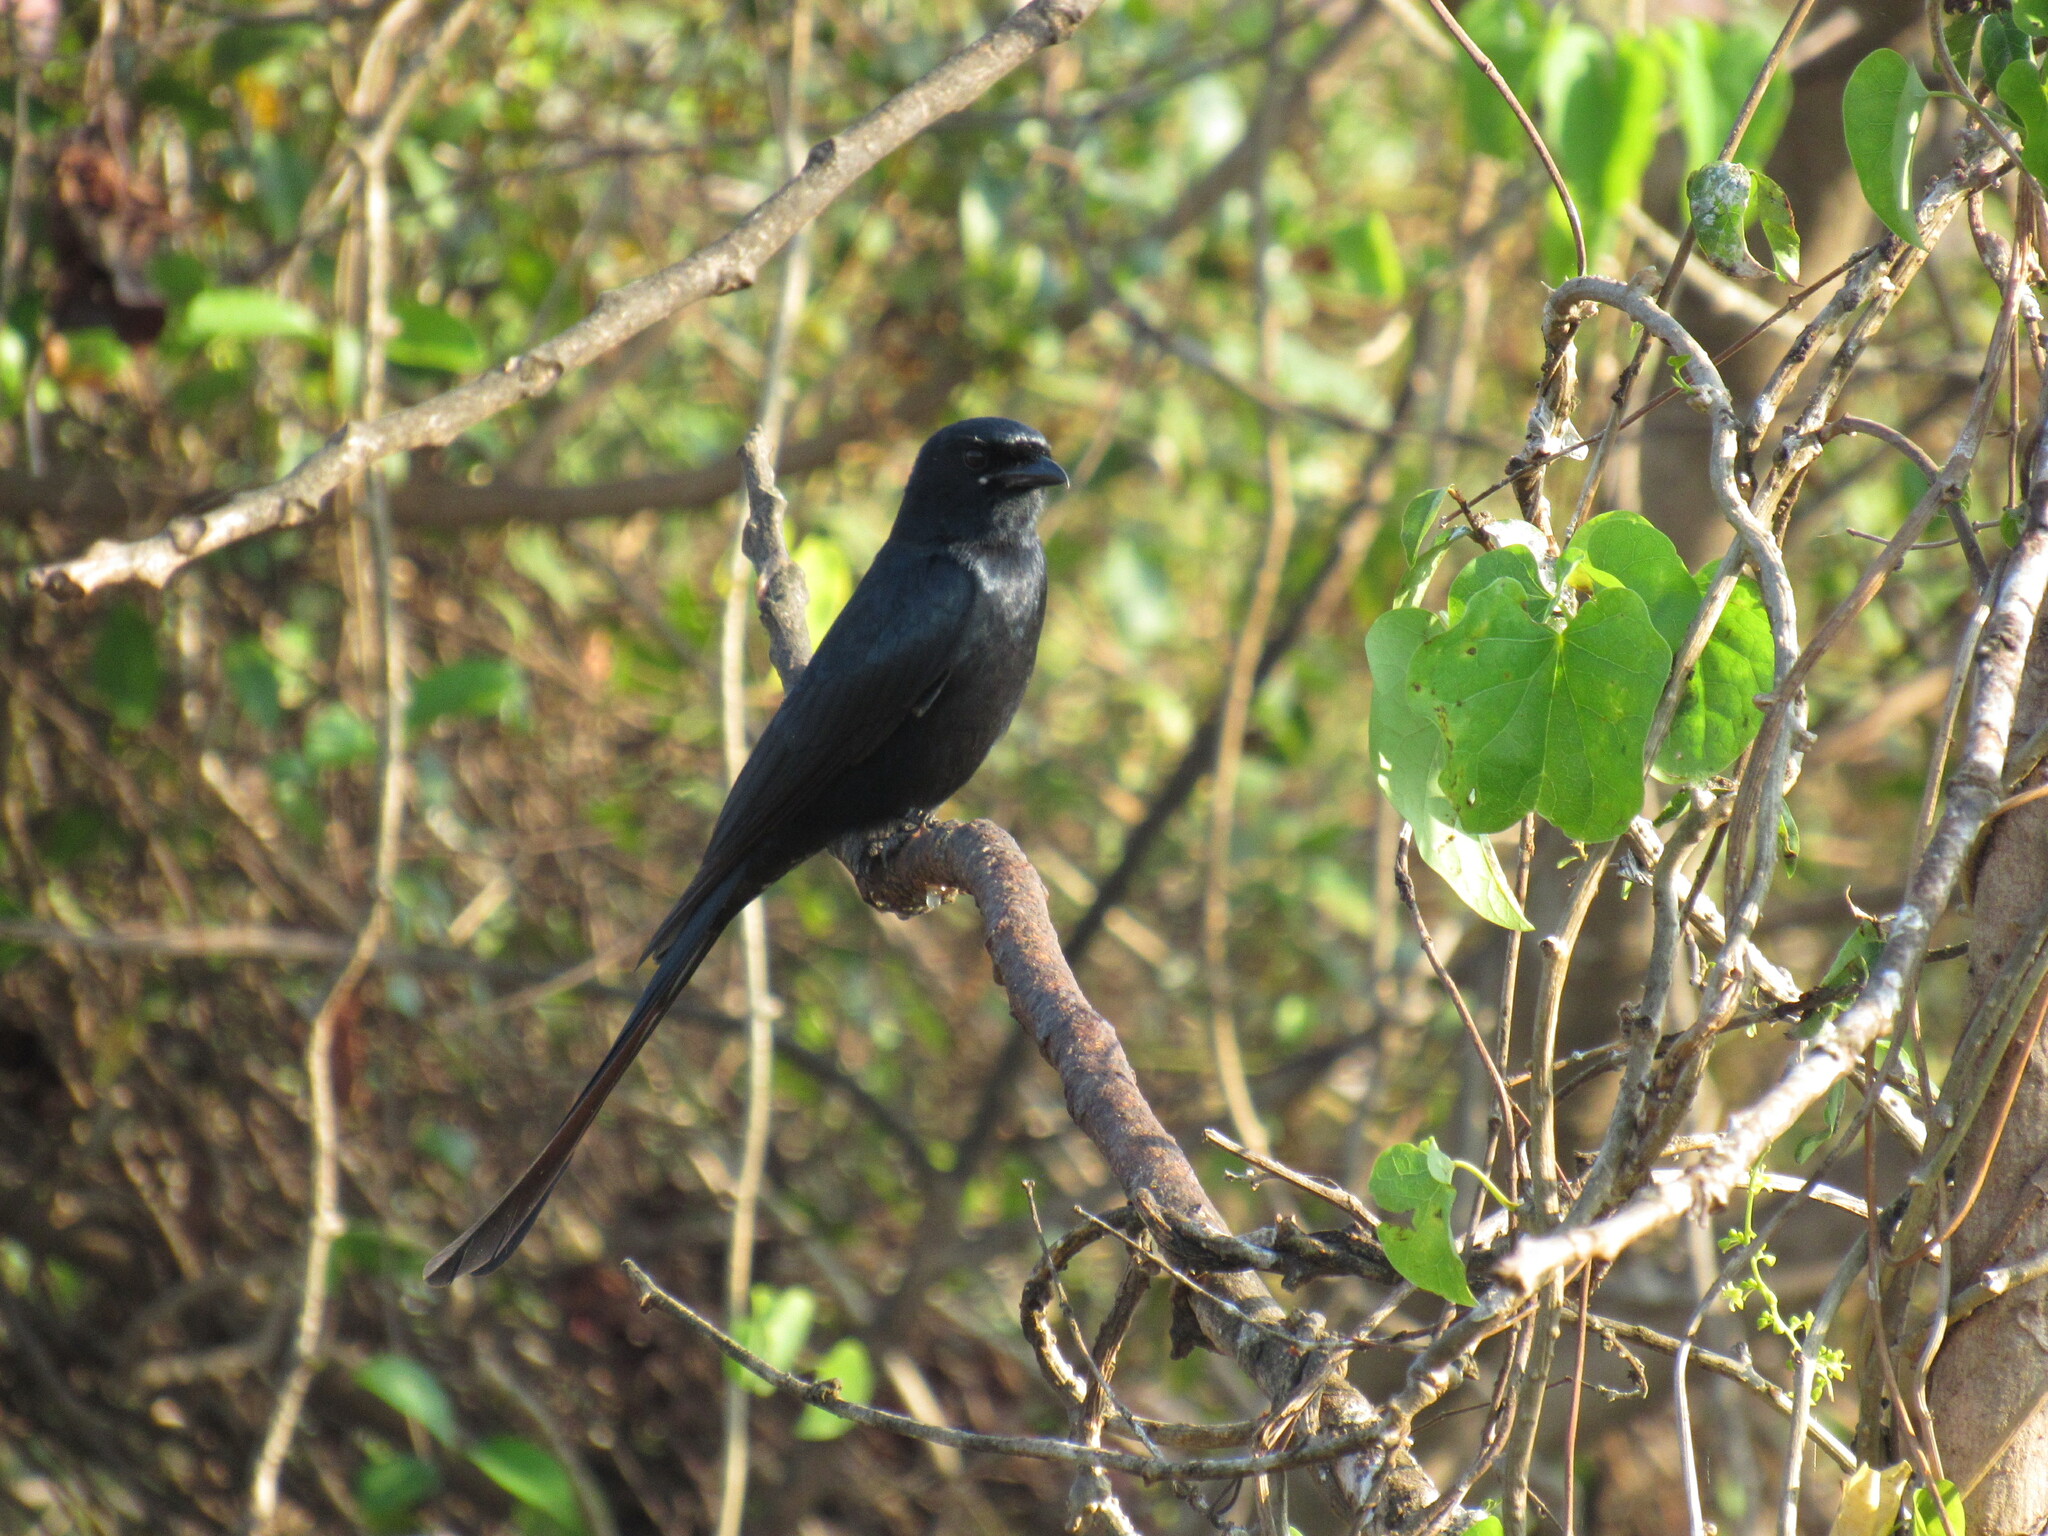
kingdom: Animalia
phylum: Chordata
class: Aves
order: Passeriformes
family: Dicruridae
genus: Dicrurus
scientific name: Dicrurus macrocercus
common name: Black drongo
